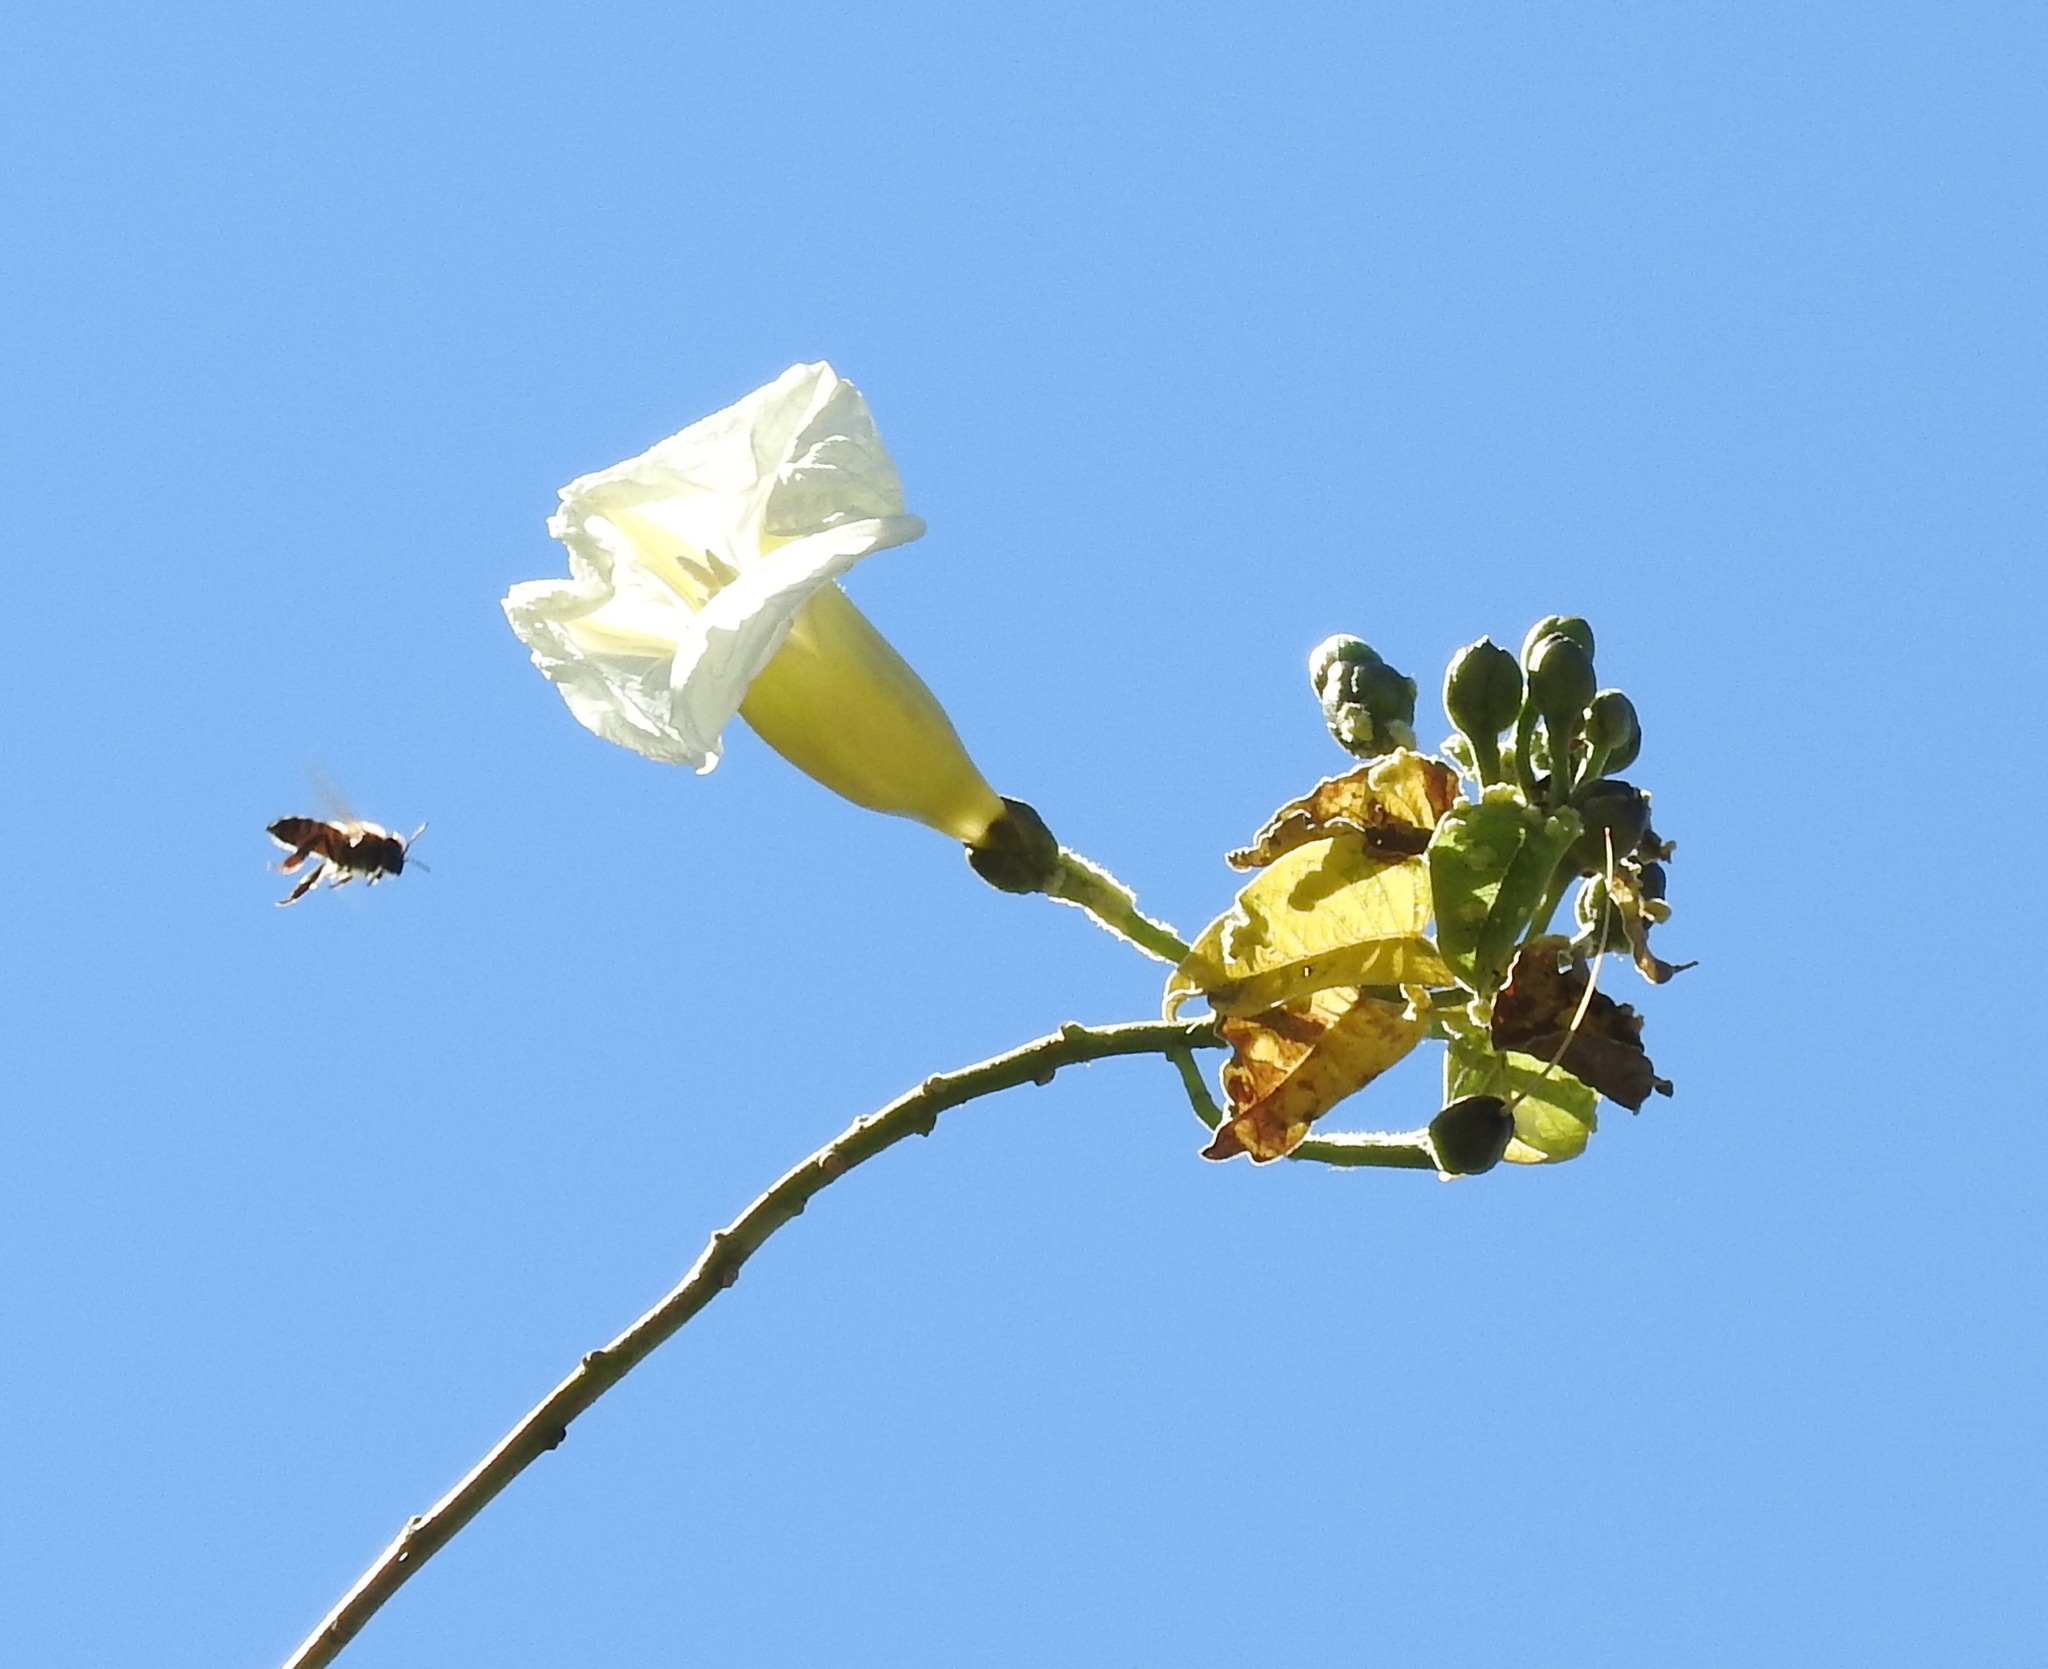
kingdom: Plantae
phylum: Tracheophyta
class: Magnoliopsida
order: Solanales
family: Convolvulaceae
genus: Ipomoea
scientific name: Ipomoea arborescens
